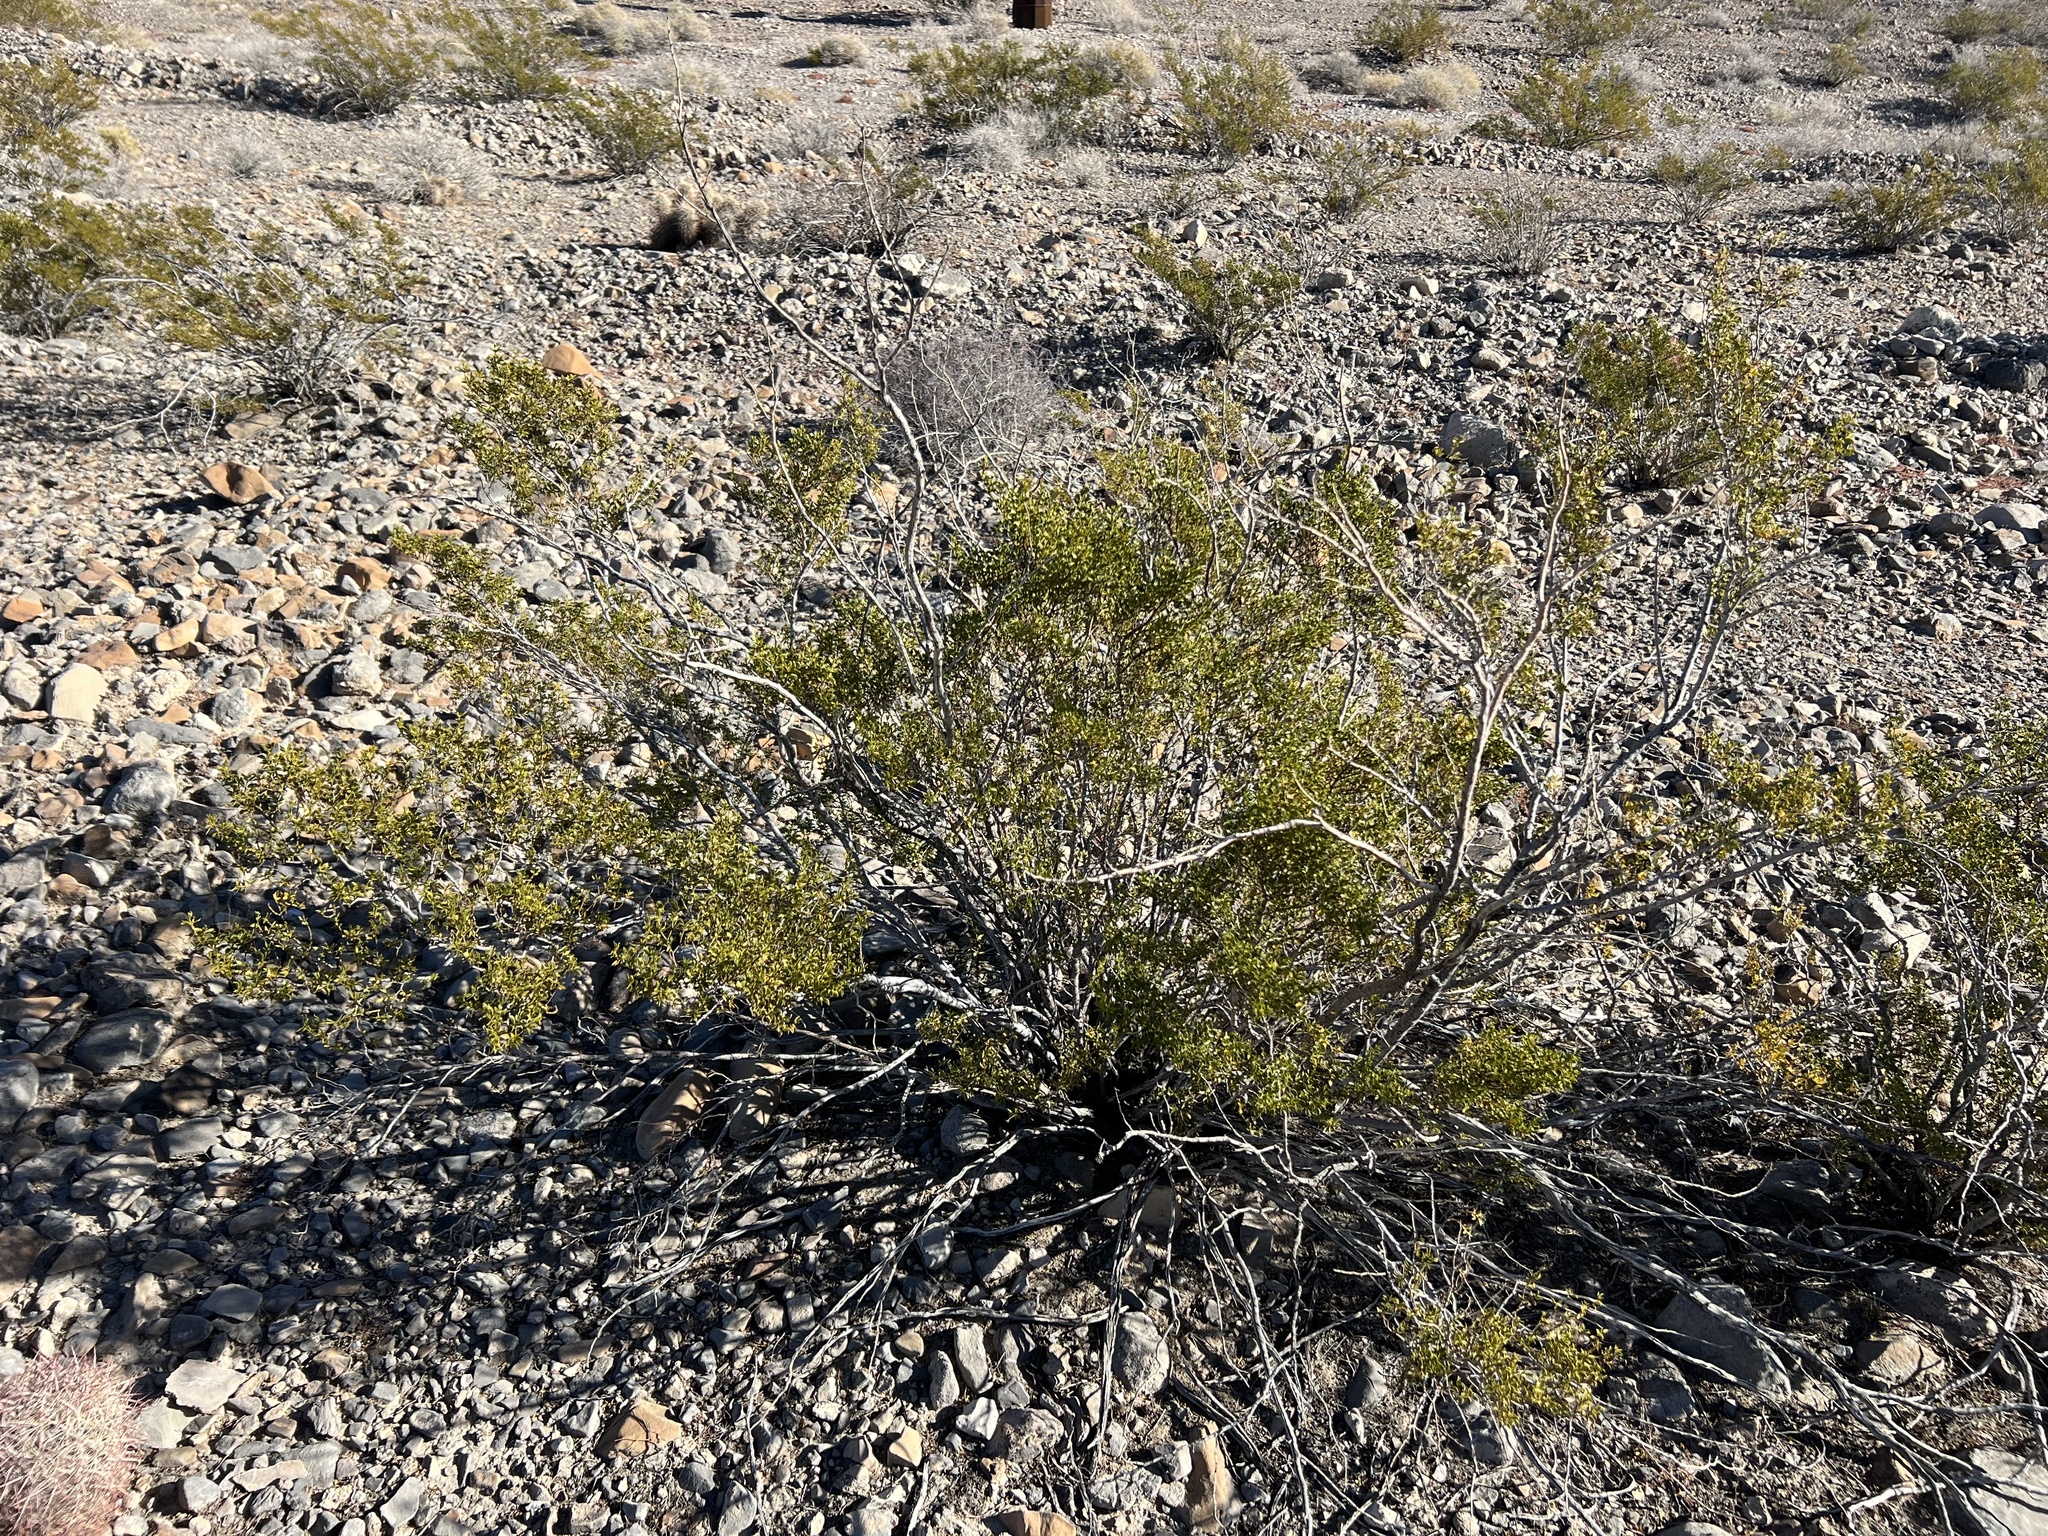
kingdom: Plantae
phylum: Tracheophyta
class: Magnoliopsida
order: Zygophyllales
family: Zygophyllaceae
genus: Larrea
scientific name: Larrea tridentata
